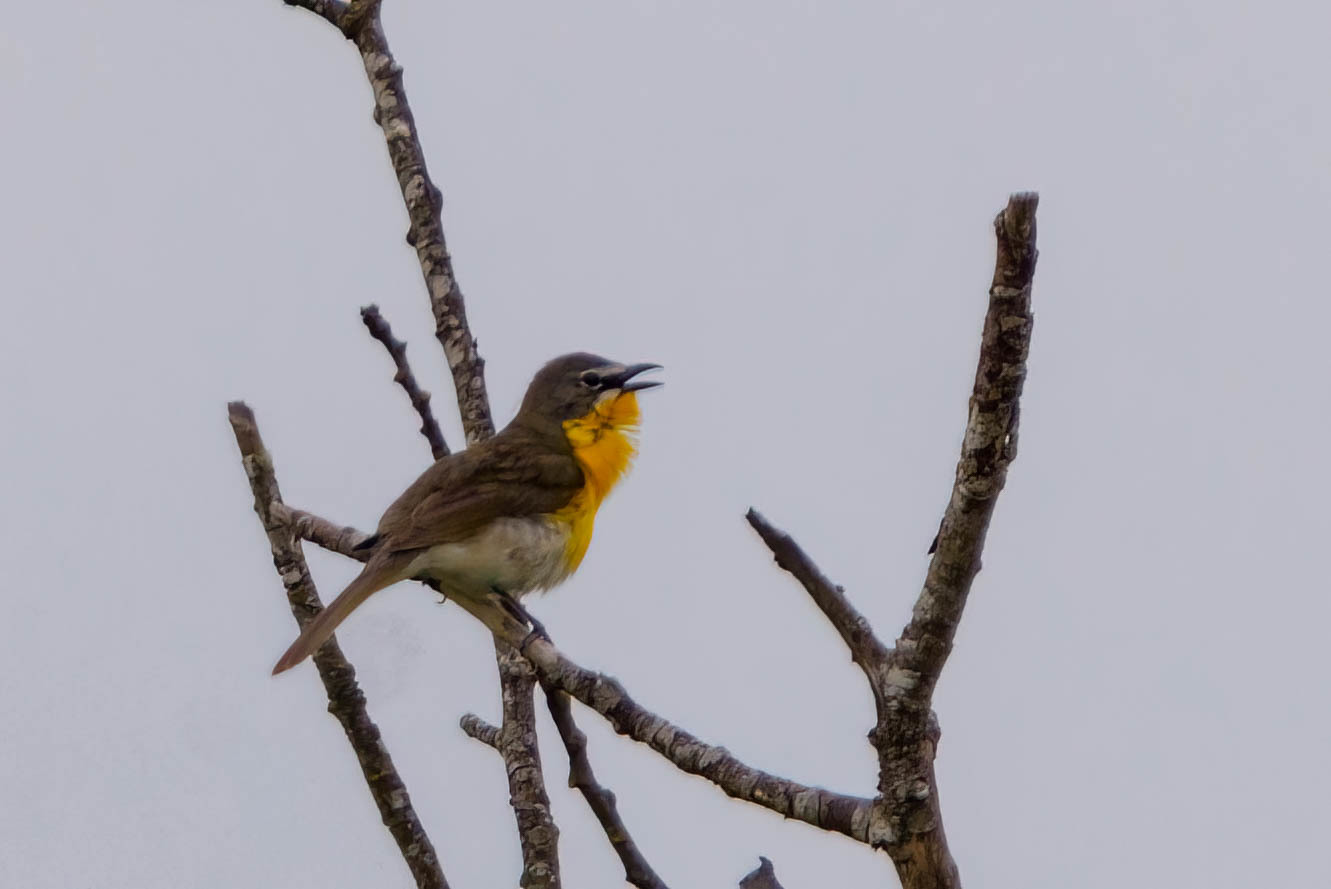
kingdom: Animalia
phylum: Chordata
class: Aves
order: Passeriformes
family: Parulidae
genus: Icteria
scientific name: Icteria virens
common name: Yellow-breasted chat
